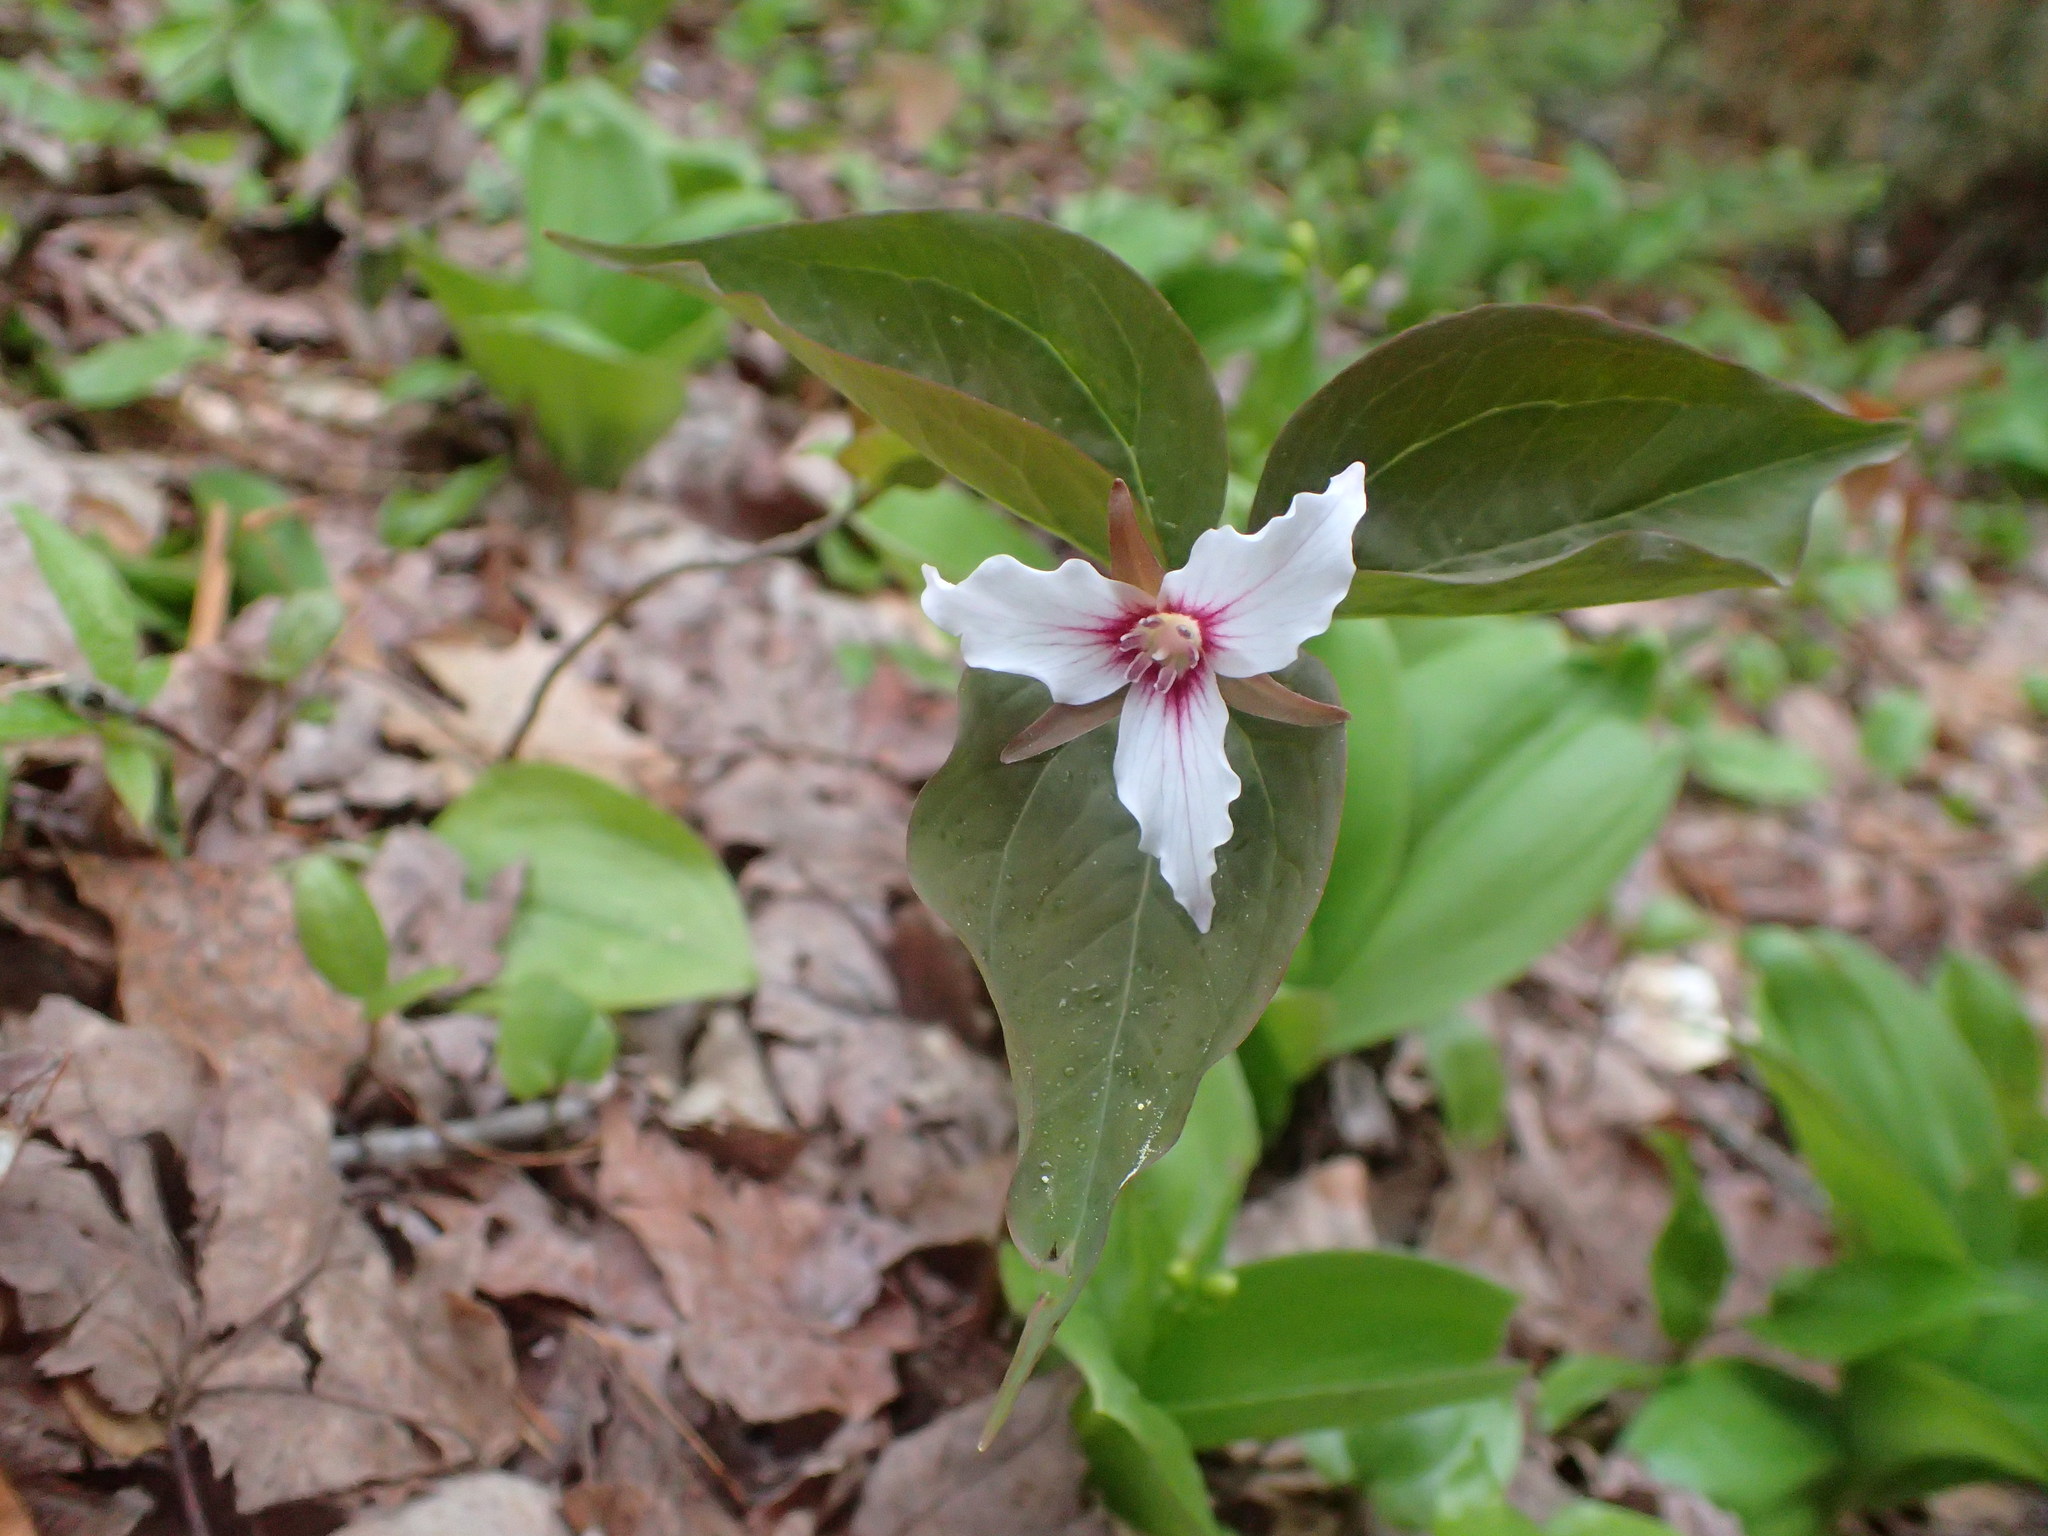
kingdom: Plantae
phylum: Tracheophyta
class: Liliopsida
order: Liliales
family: Melanthiaceae
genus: Trillium
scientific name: Trillium undulatum
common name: Paint trillium
